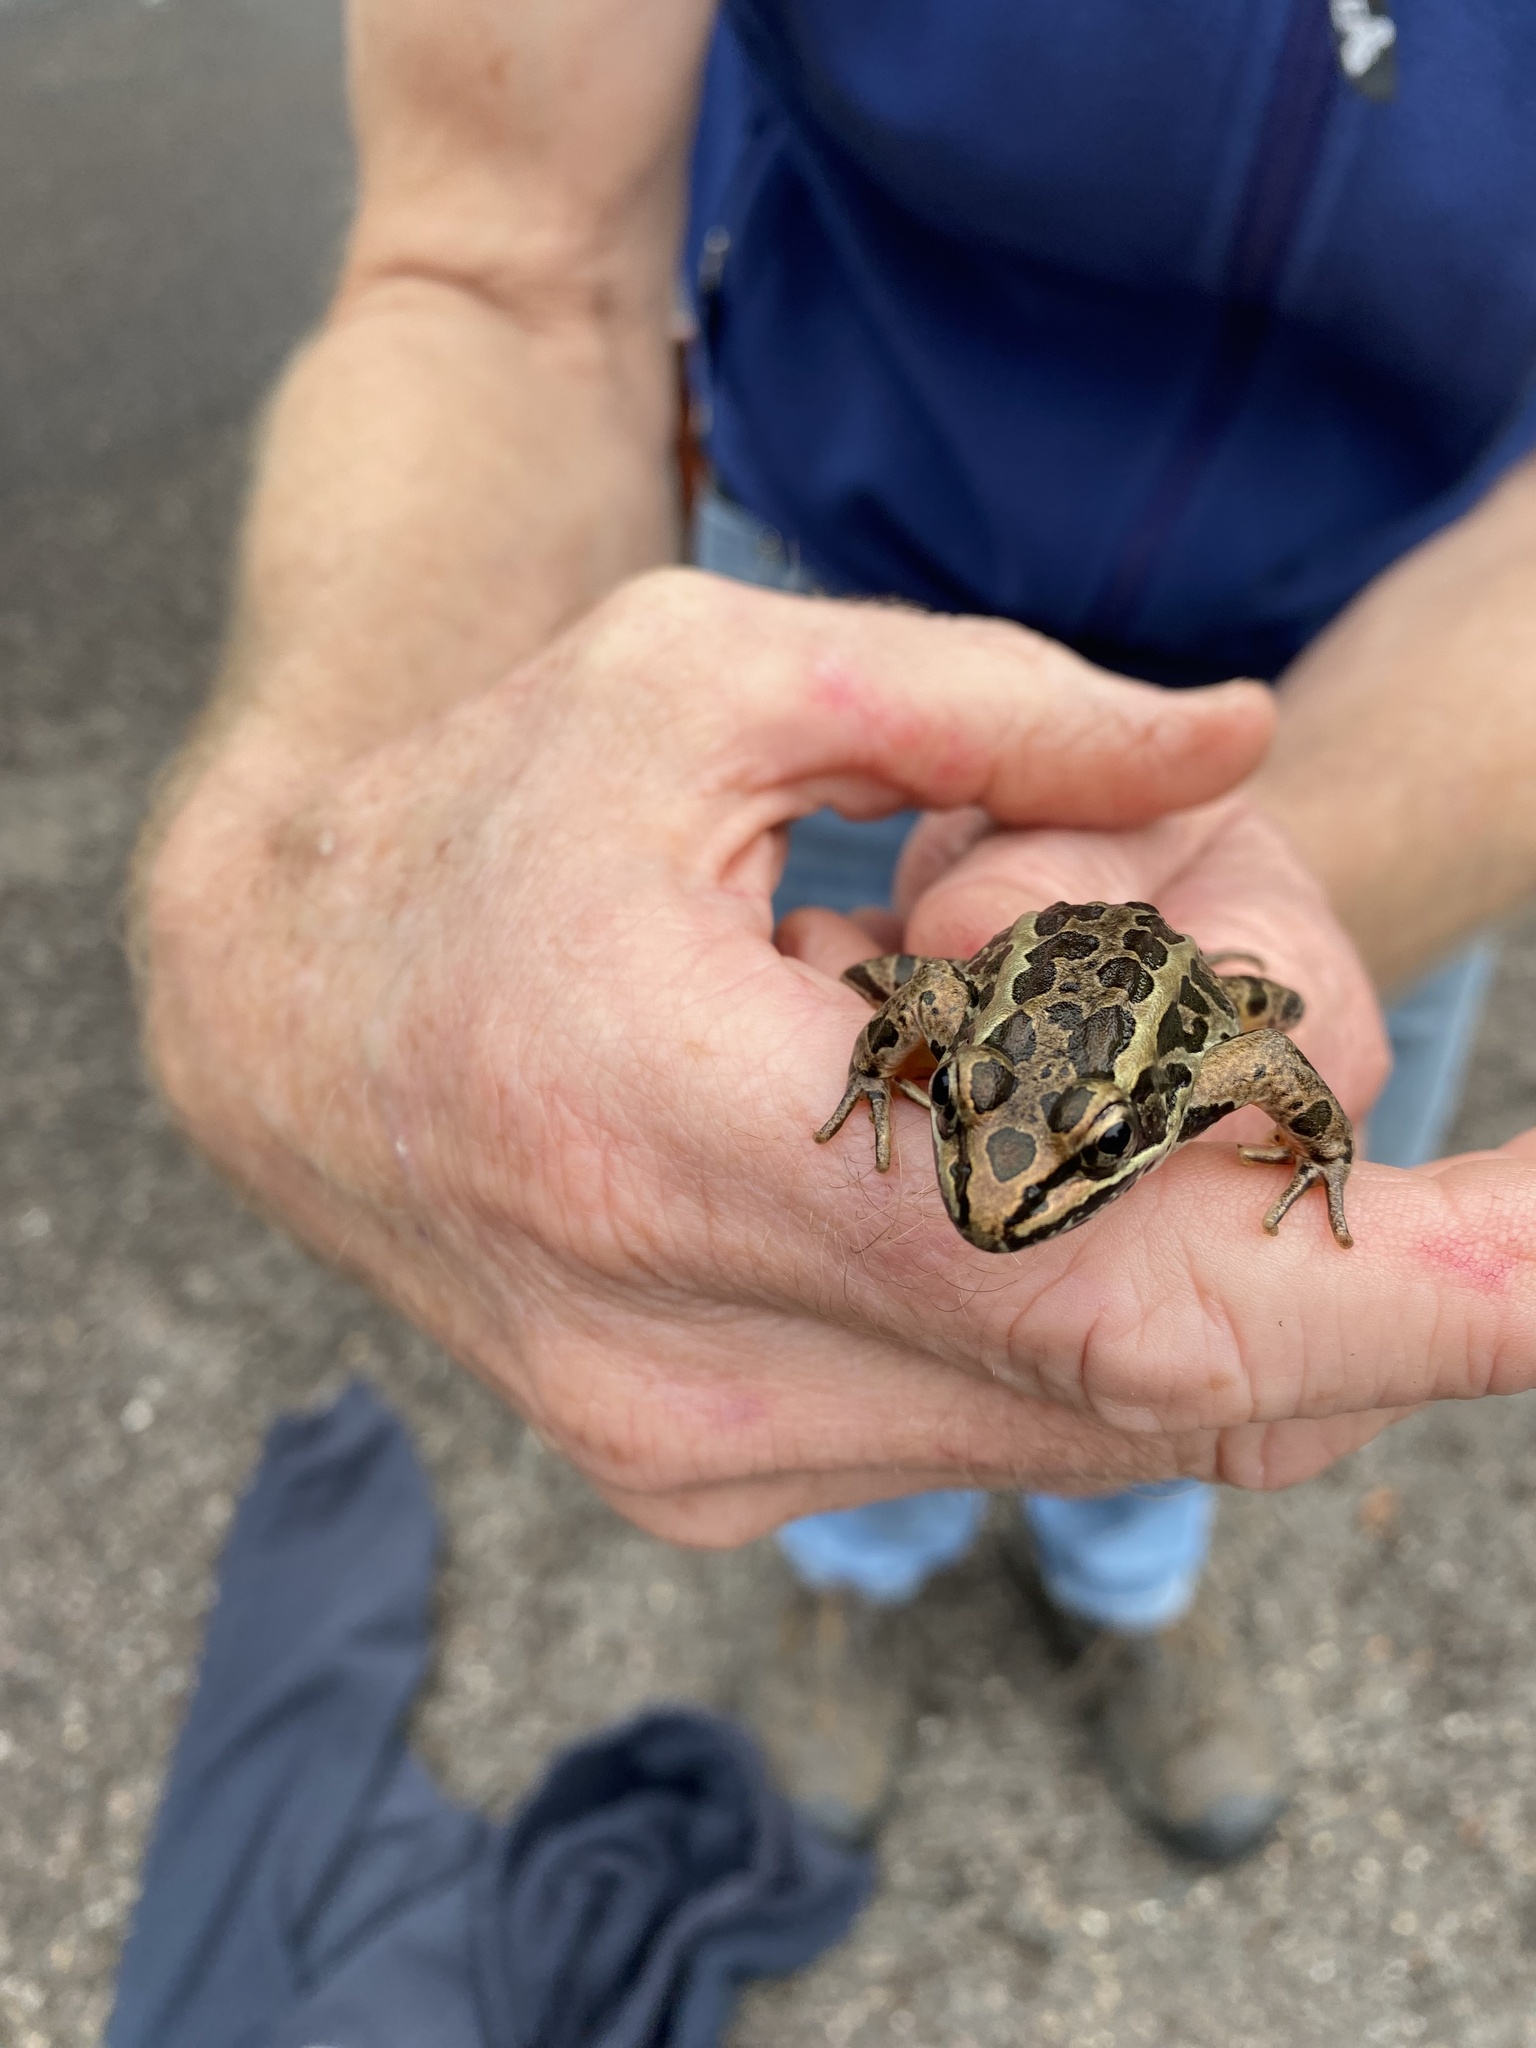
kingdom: Animalia
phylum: Chordata
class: Amphibia
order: Anura
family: Ranidae
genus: Lithobates
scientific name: Lithobates palustris
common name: Pickerel frog
